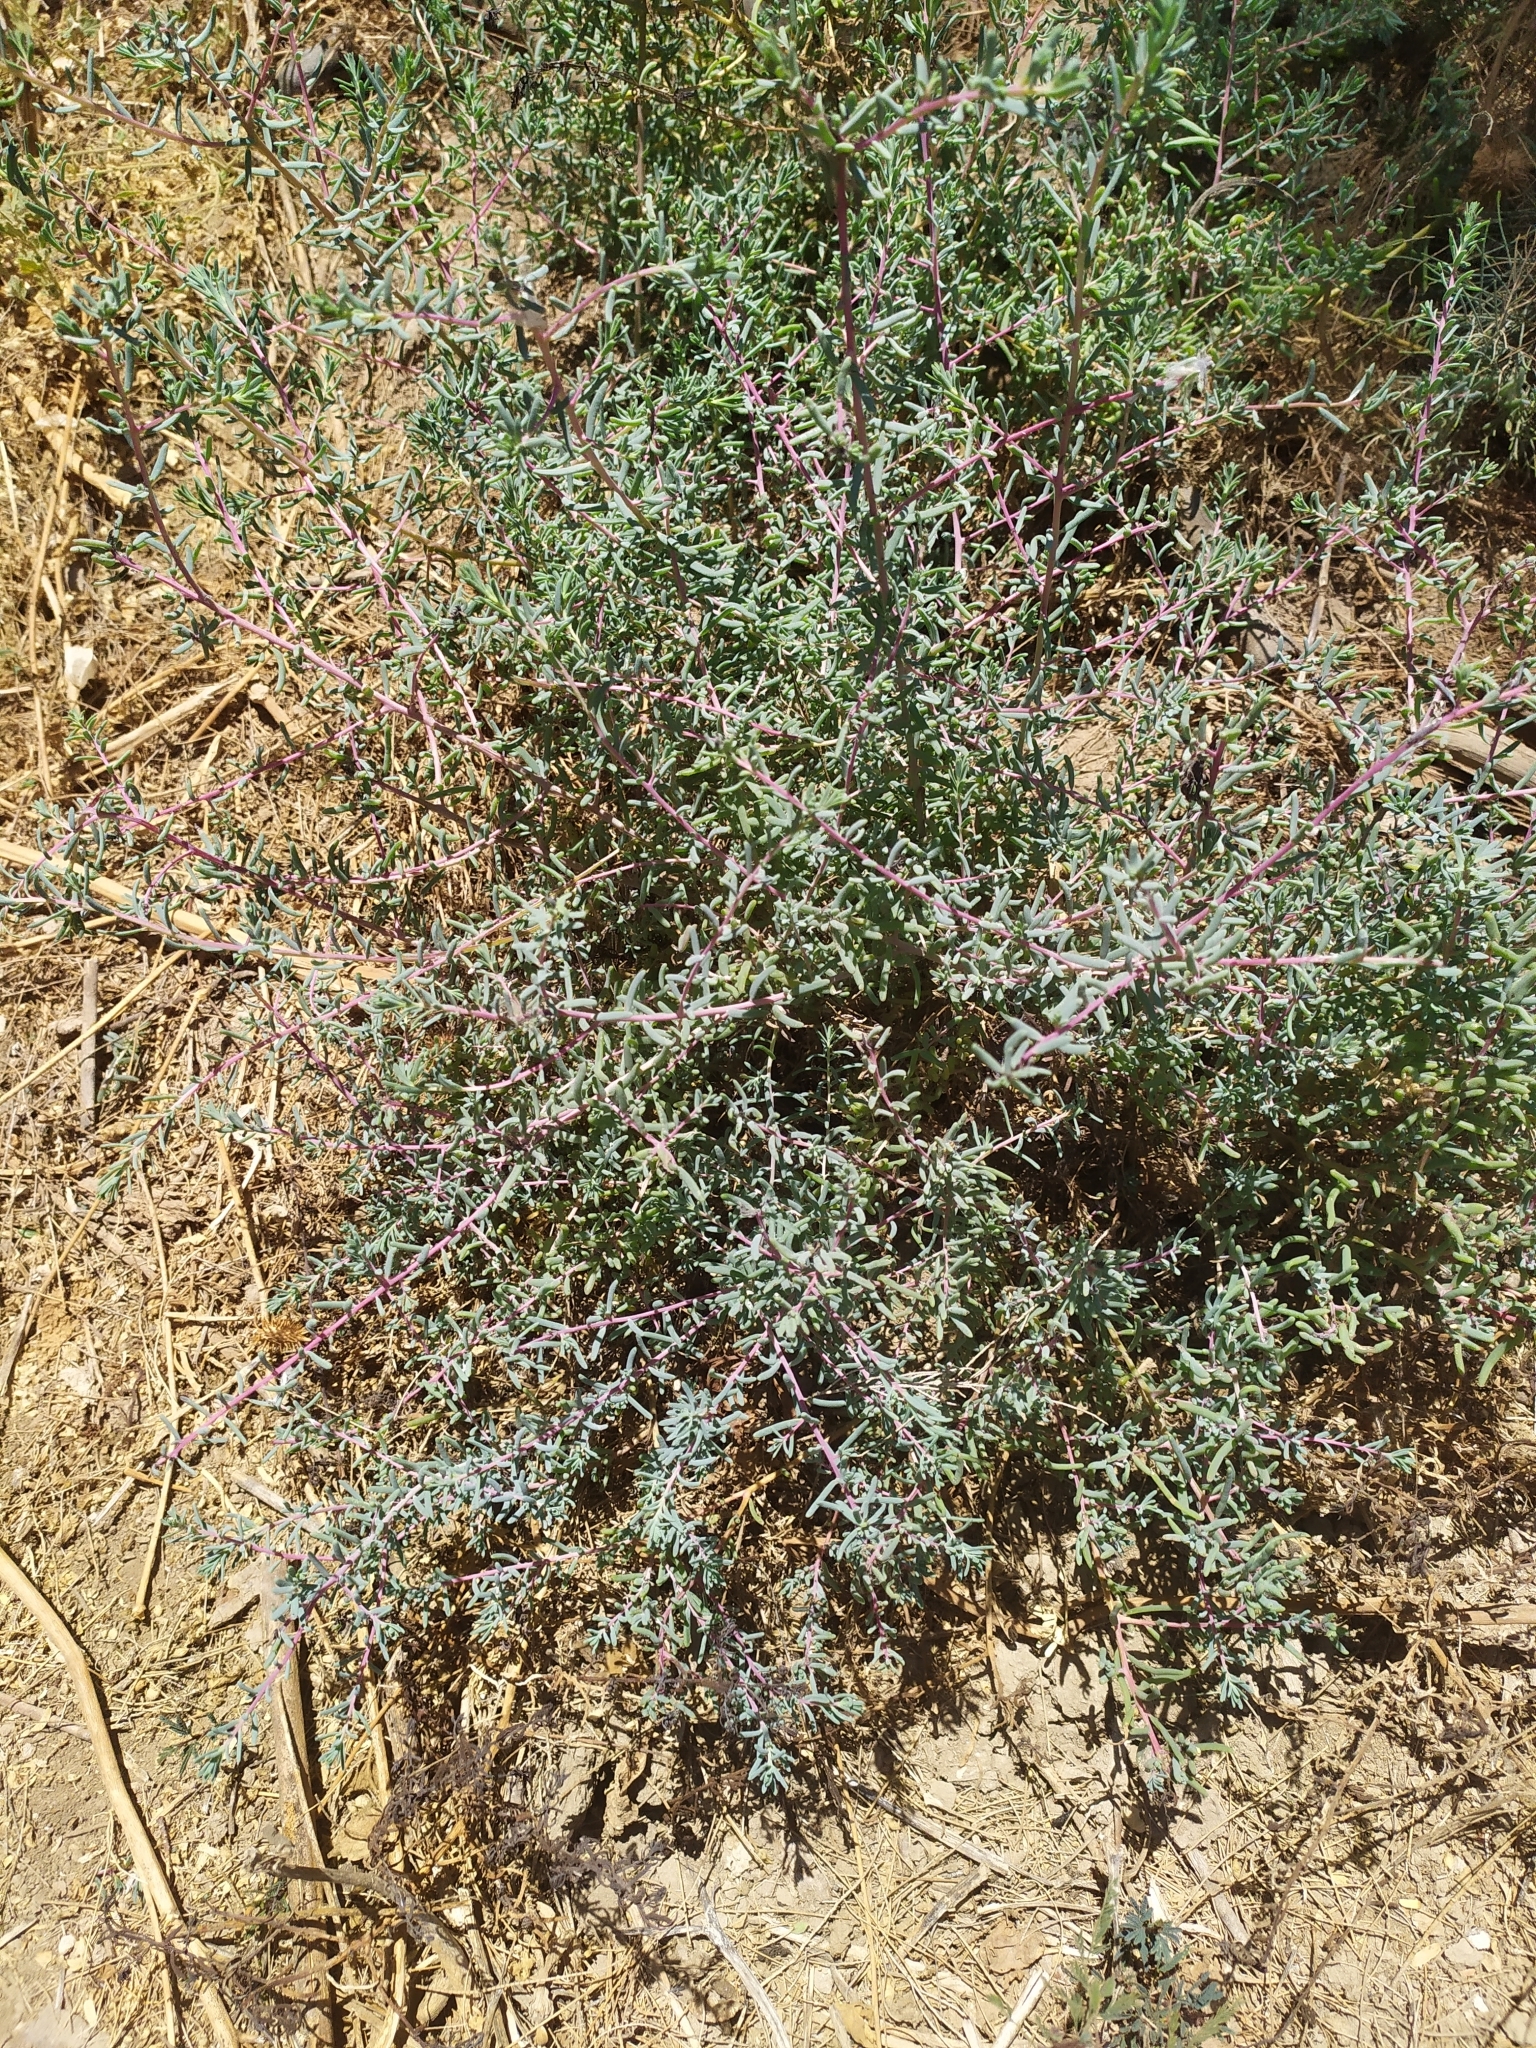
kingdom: Plantae
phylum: Tracheophyta
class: Magnoliopsida
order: Caryophyllales
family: Amaranthaceae
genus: Suaeda
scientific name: Suaeda nigra
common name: Bush seepweed
